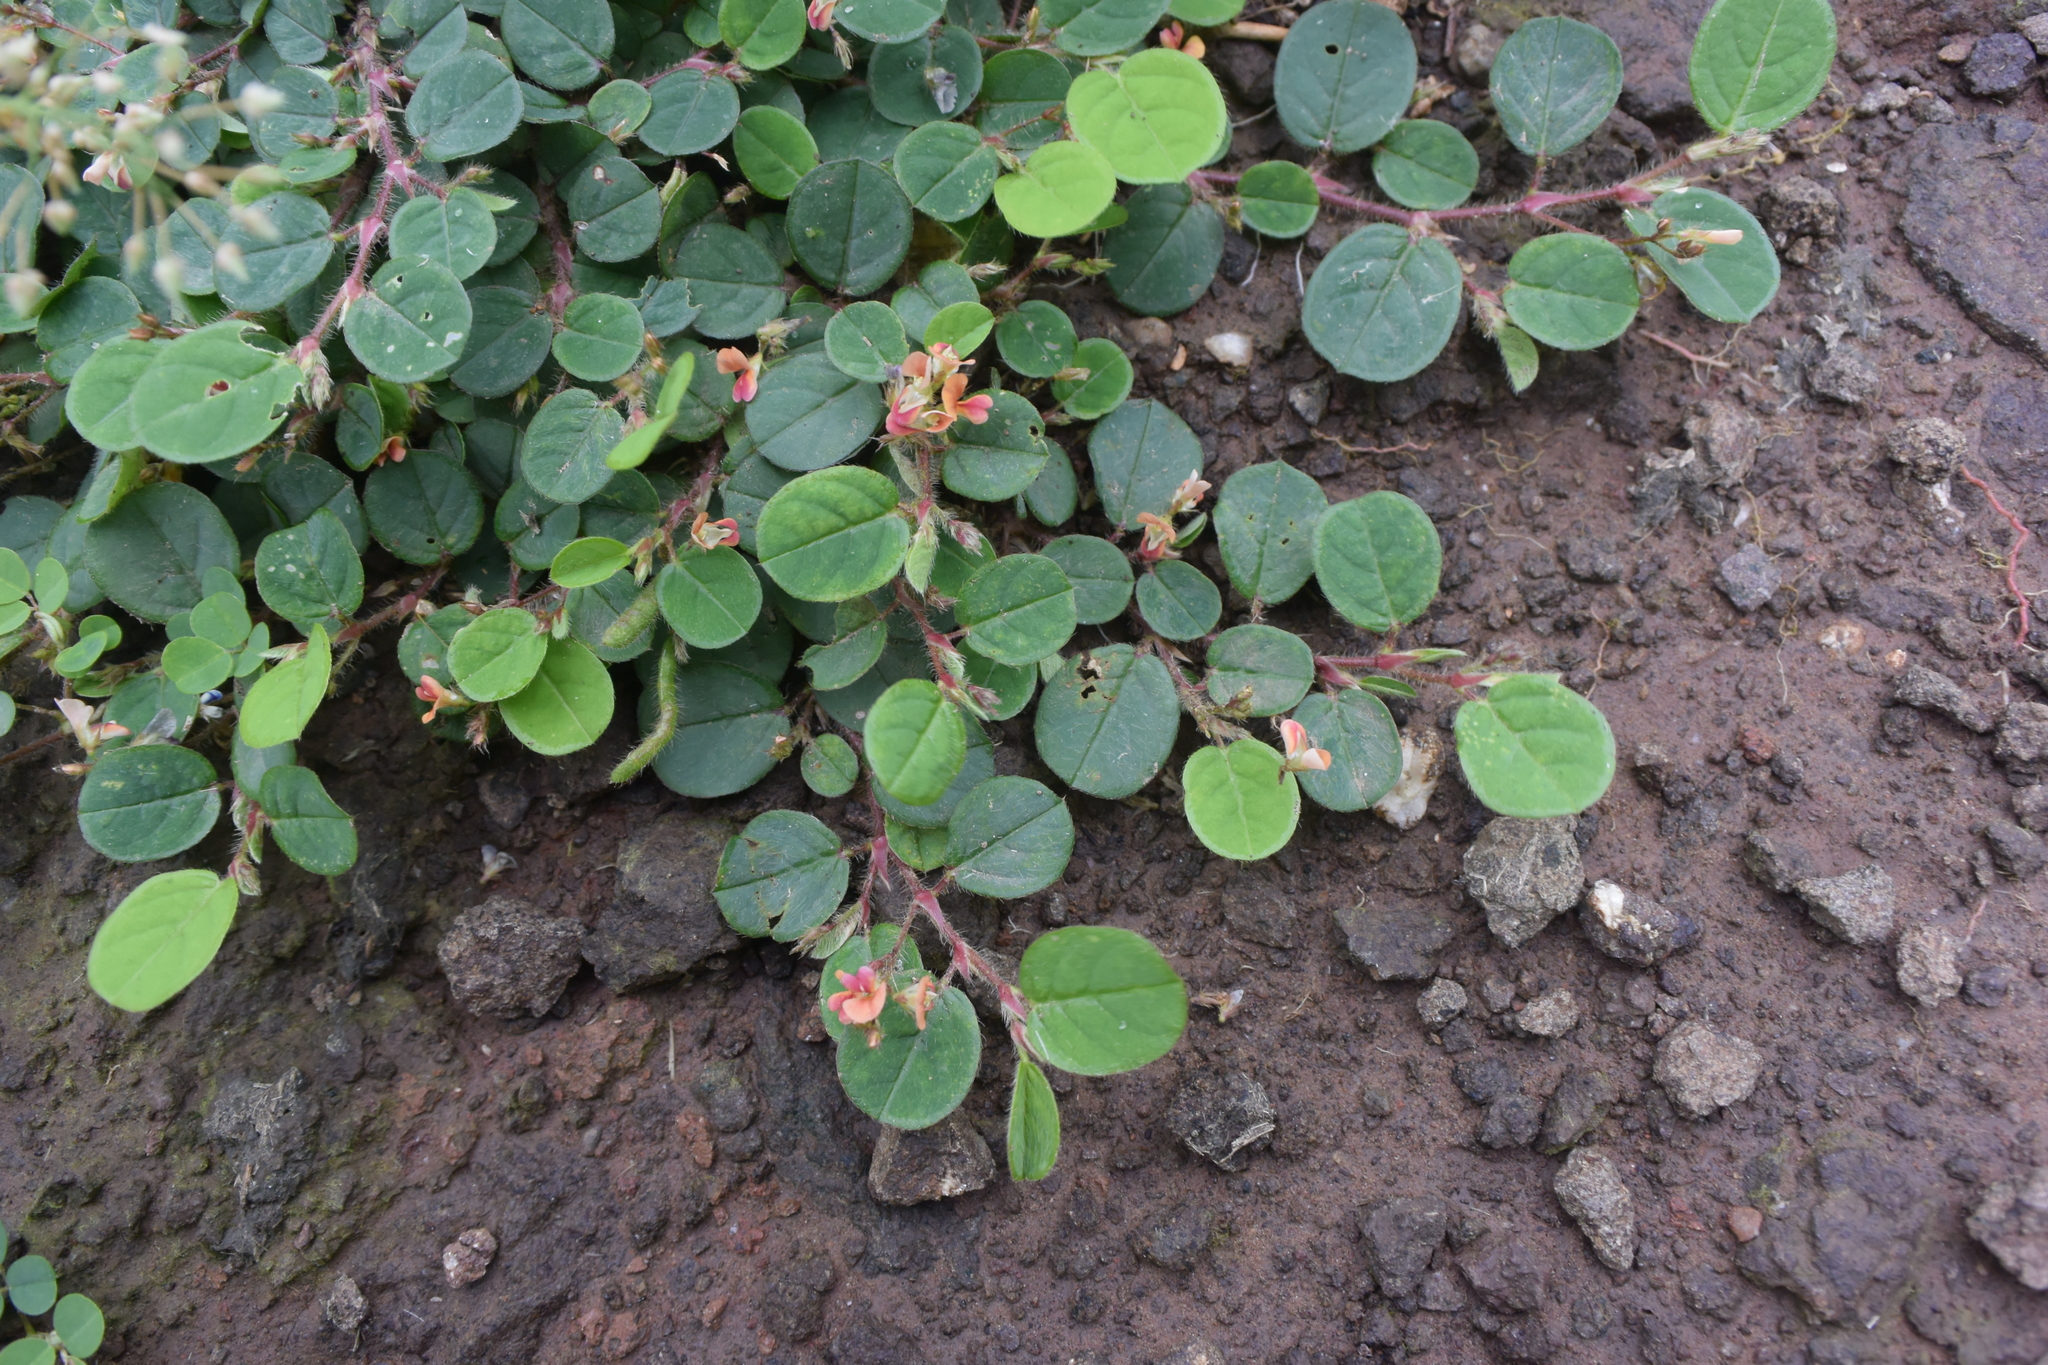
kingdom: Plantae
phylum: Tracheophyta
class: Magnoliopsida
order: Fabales
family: Fabaceae
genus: Alysicarpus
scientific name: Alysicarpus hamosus
